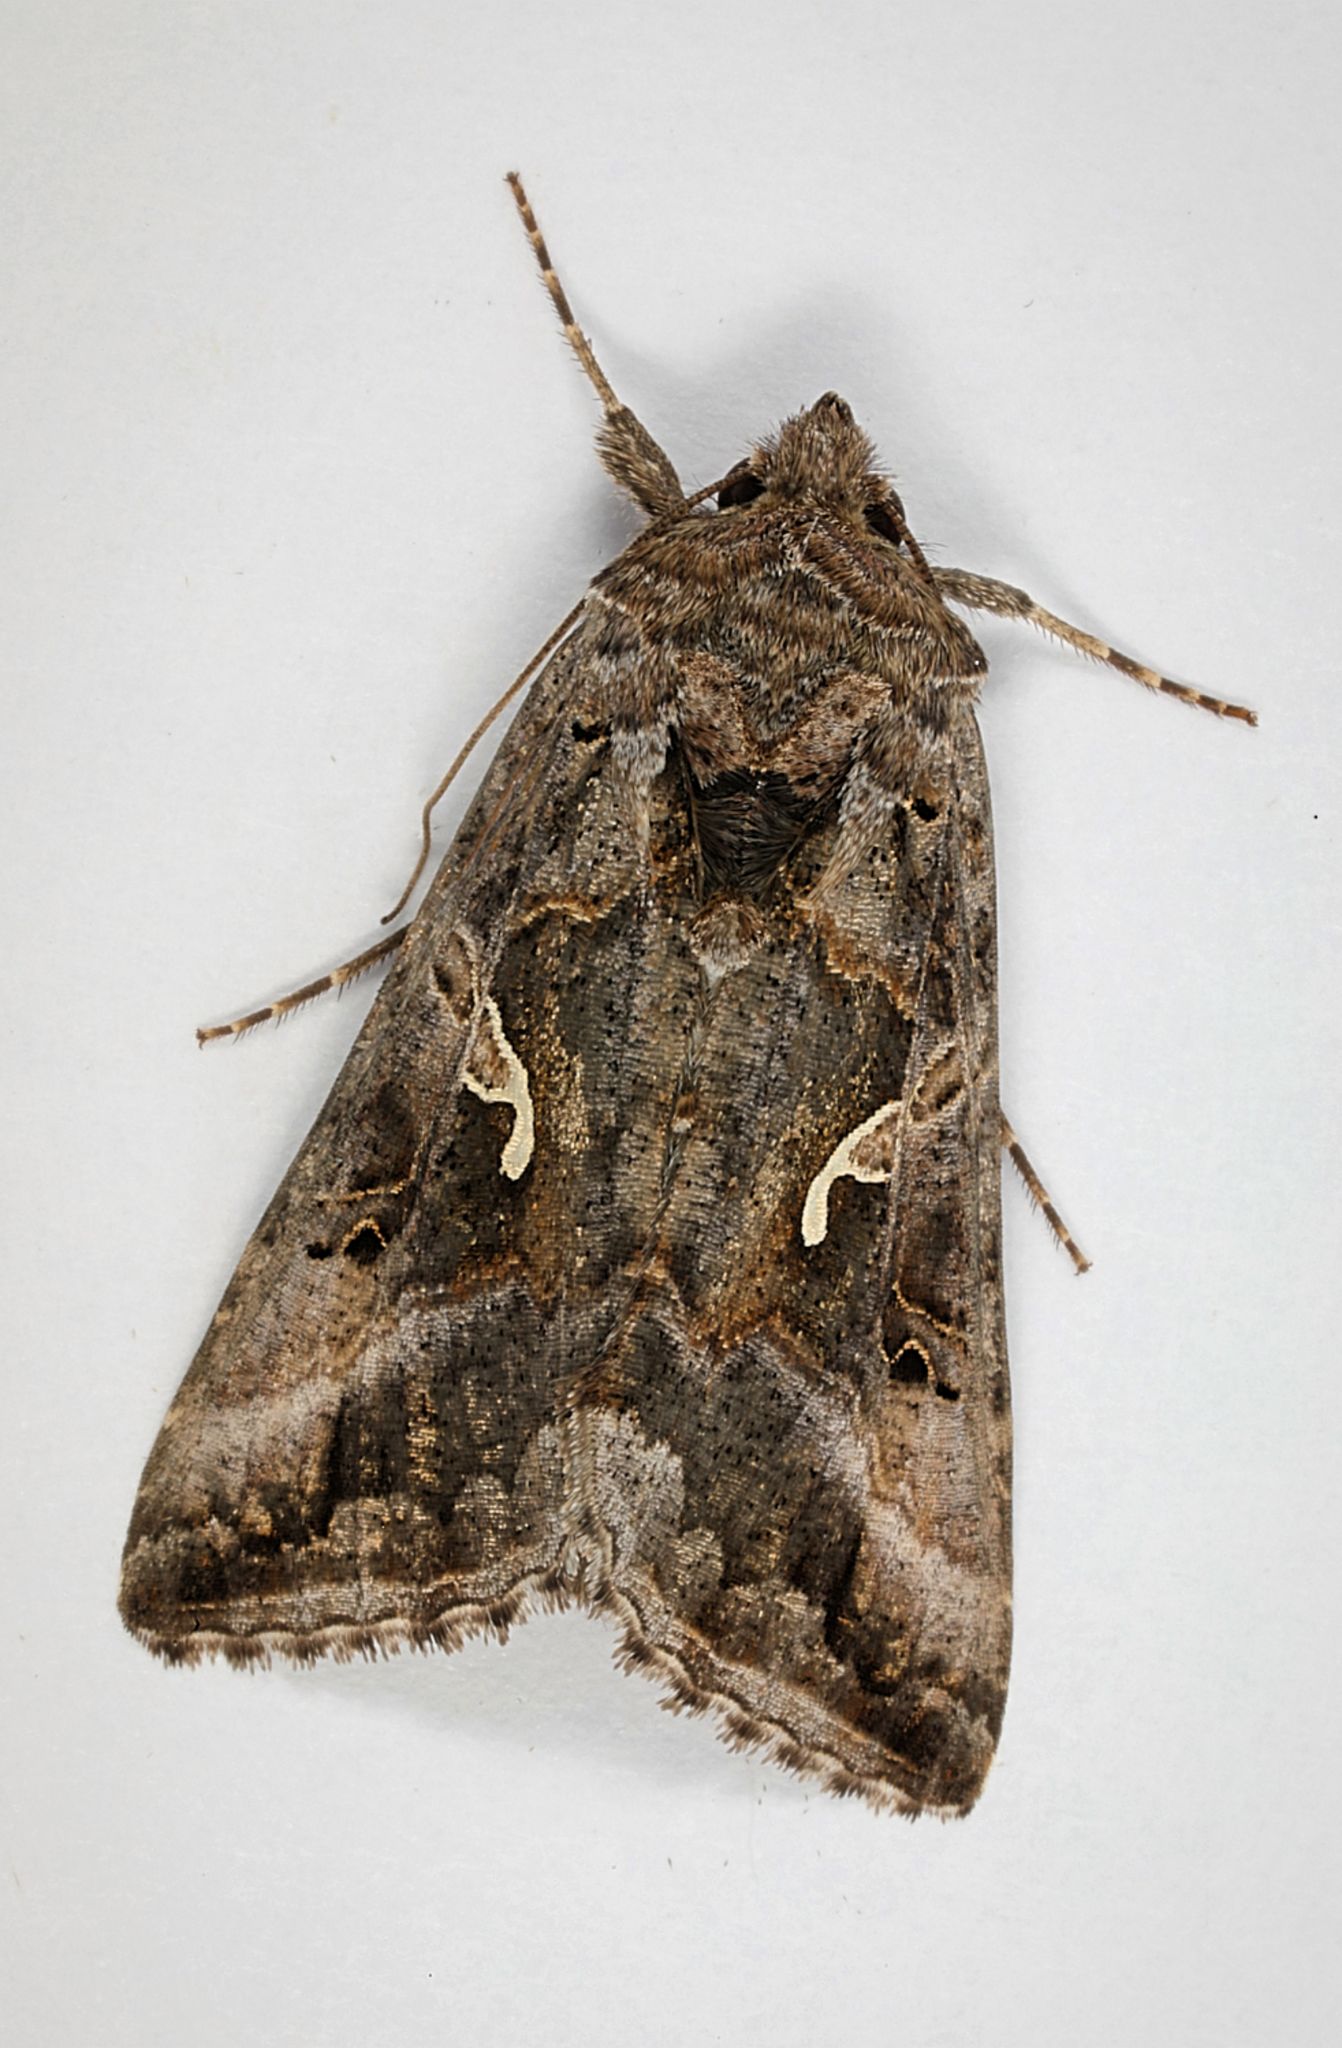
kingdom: Animalia
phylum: Arthropoda
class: Insecta
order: Lepidoptera
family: Noctuidae
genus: Autographa
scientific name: Autographa gamma
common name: Silver y
